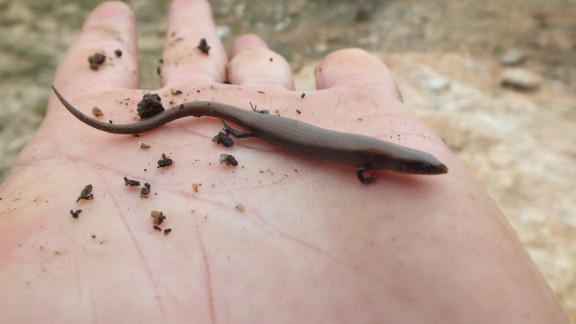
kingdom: Animalia
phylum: Chordata
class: Squamata
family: Scincidae
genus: Panaspis
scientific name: Panaspis maculicollis
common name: Spotted-neck snake-eyed skink
